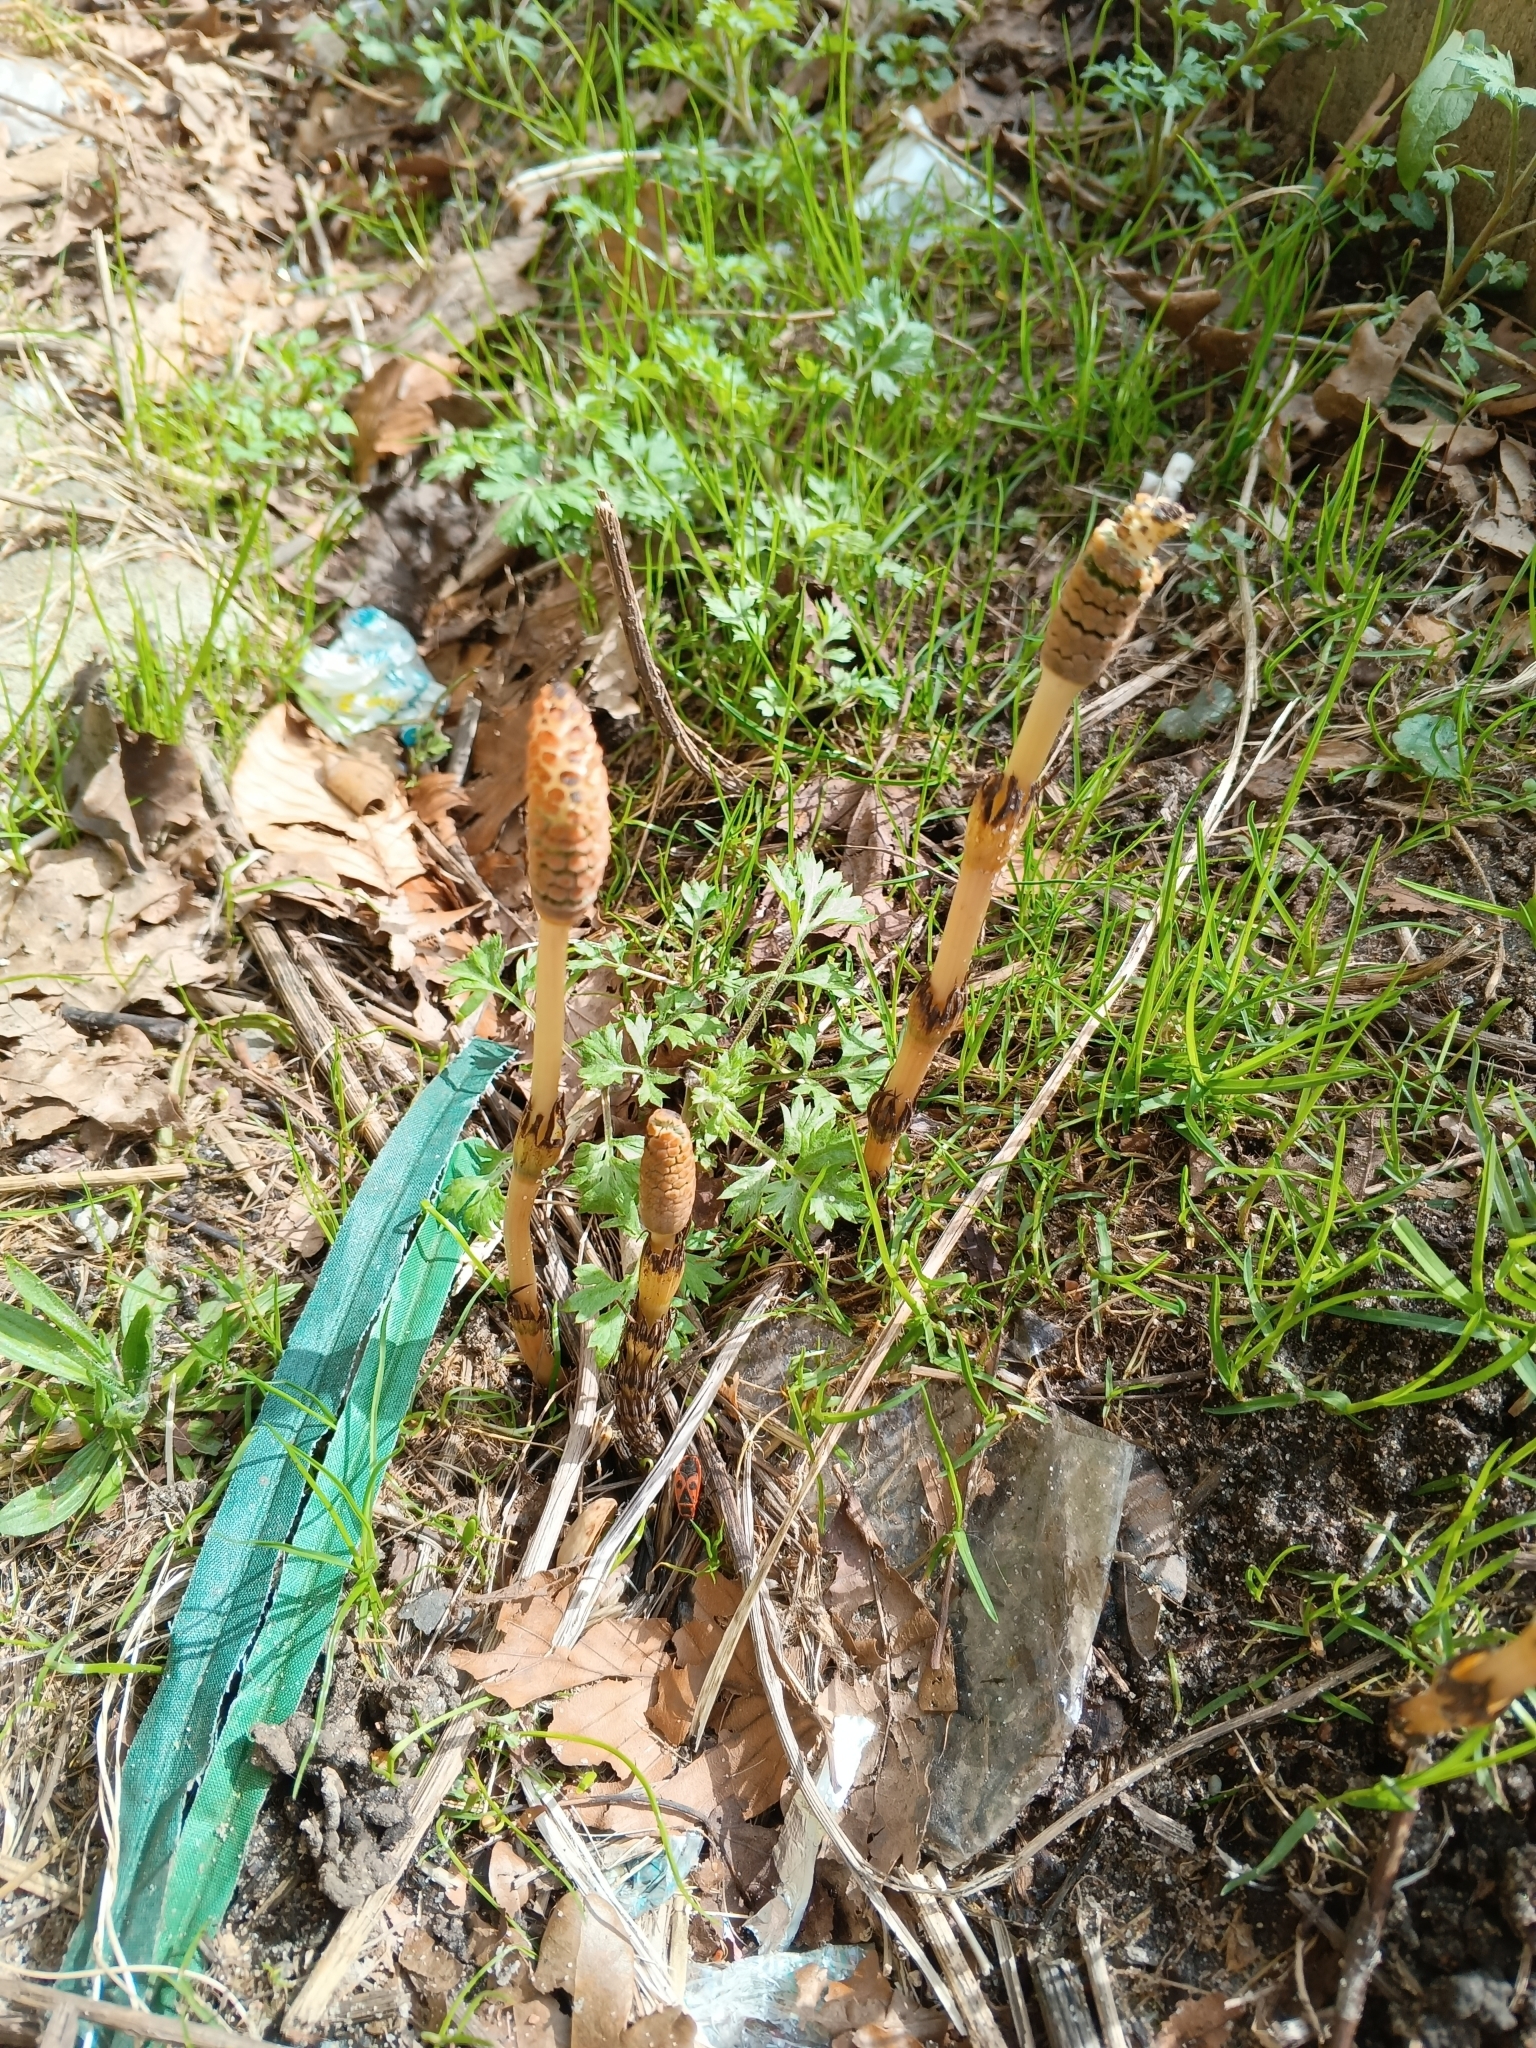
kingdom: Plantae
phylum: Tracheophyta
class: Polypodiopsida
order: Equisetales
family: Equisetaceae
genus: Equisetum
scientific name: Equisetum arvense
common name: Field horsetail
